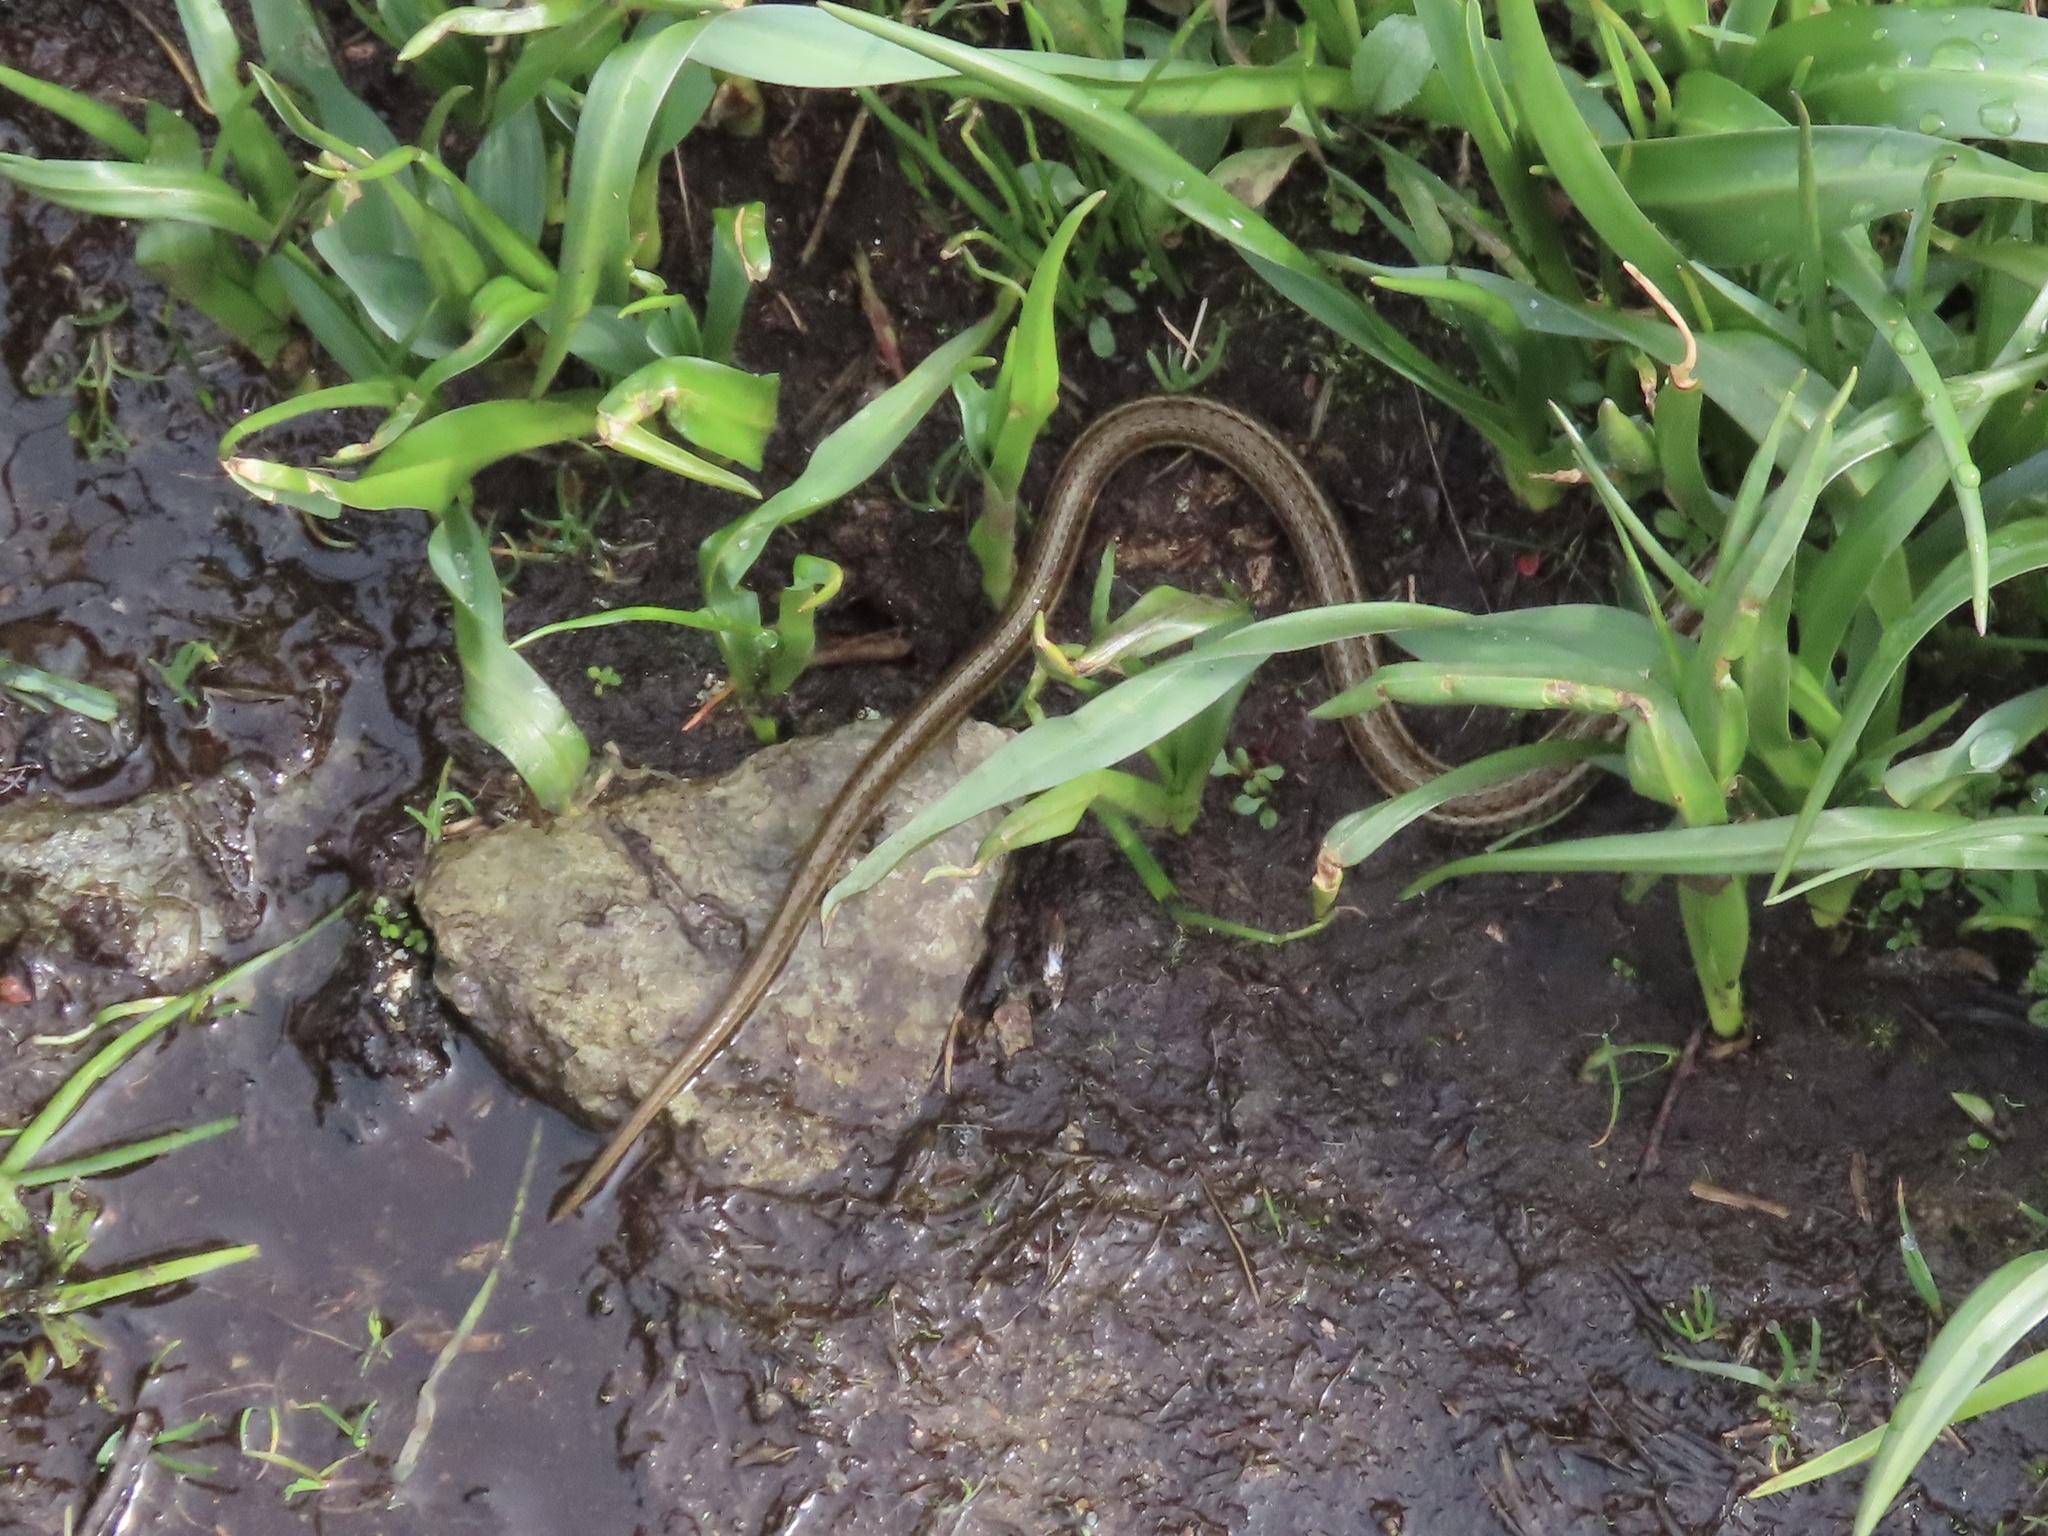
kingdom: Animalia
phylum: Chordata
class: Squamata
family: Colubridae
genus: Thamnophis
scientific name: Thamnophis ordinoides
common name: Northwestern garter snake
